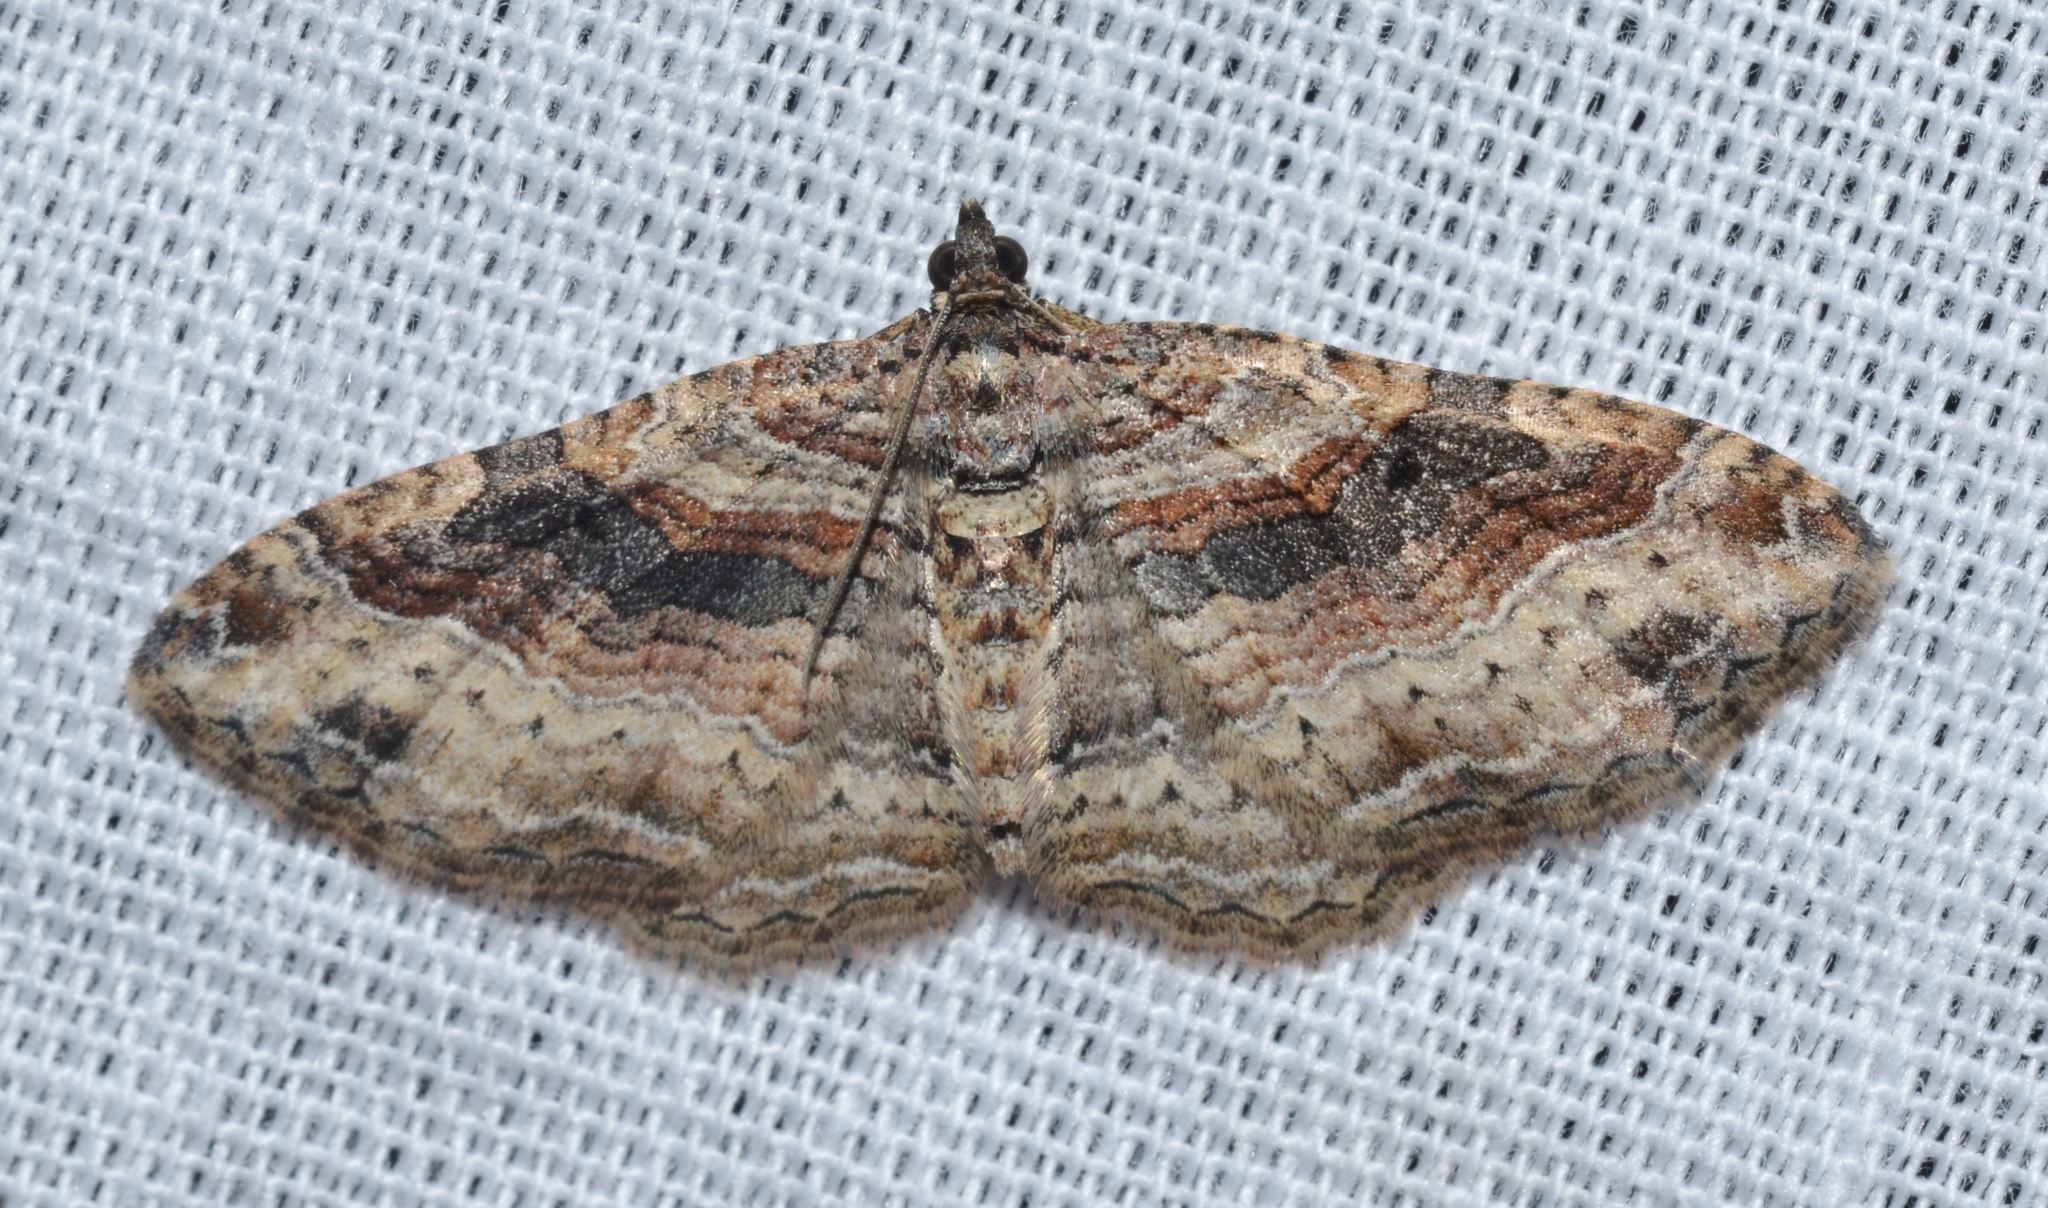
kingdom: Animalia
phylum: Arthropoda
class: Insecta
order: Lepidoptera
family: Geometridae
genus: Costaconvexa
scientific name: Costaconvexa centrostrigaria
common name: Bent-line carpet
